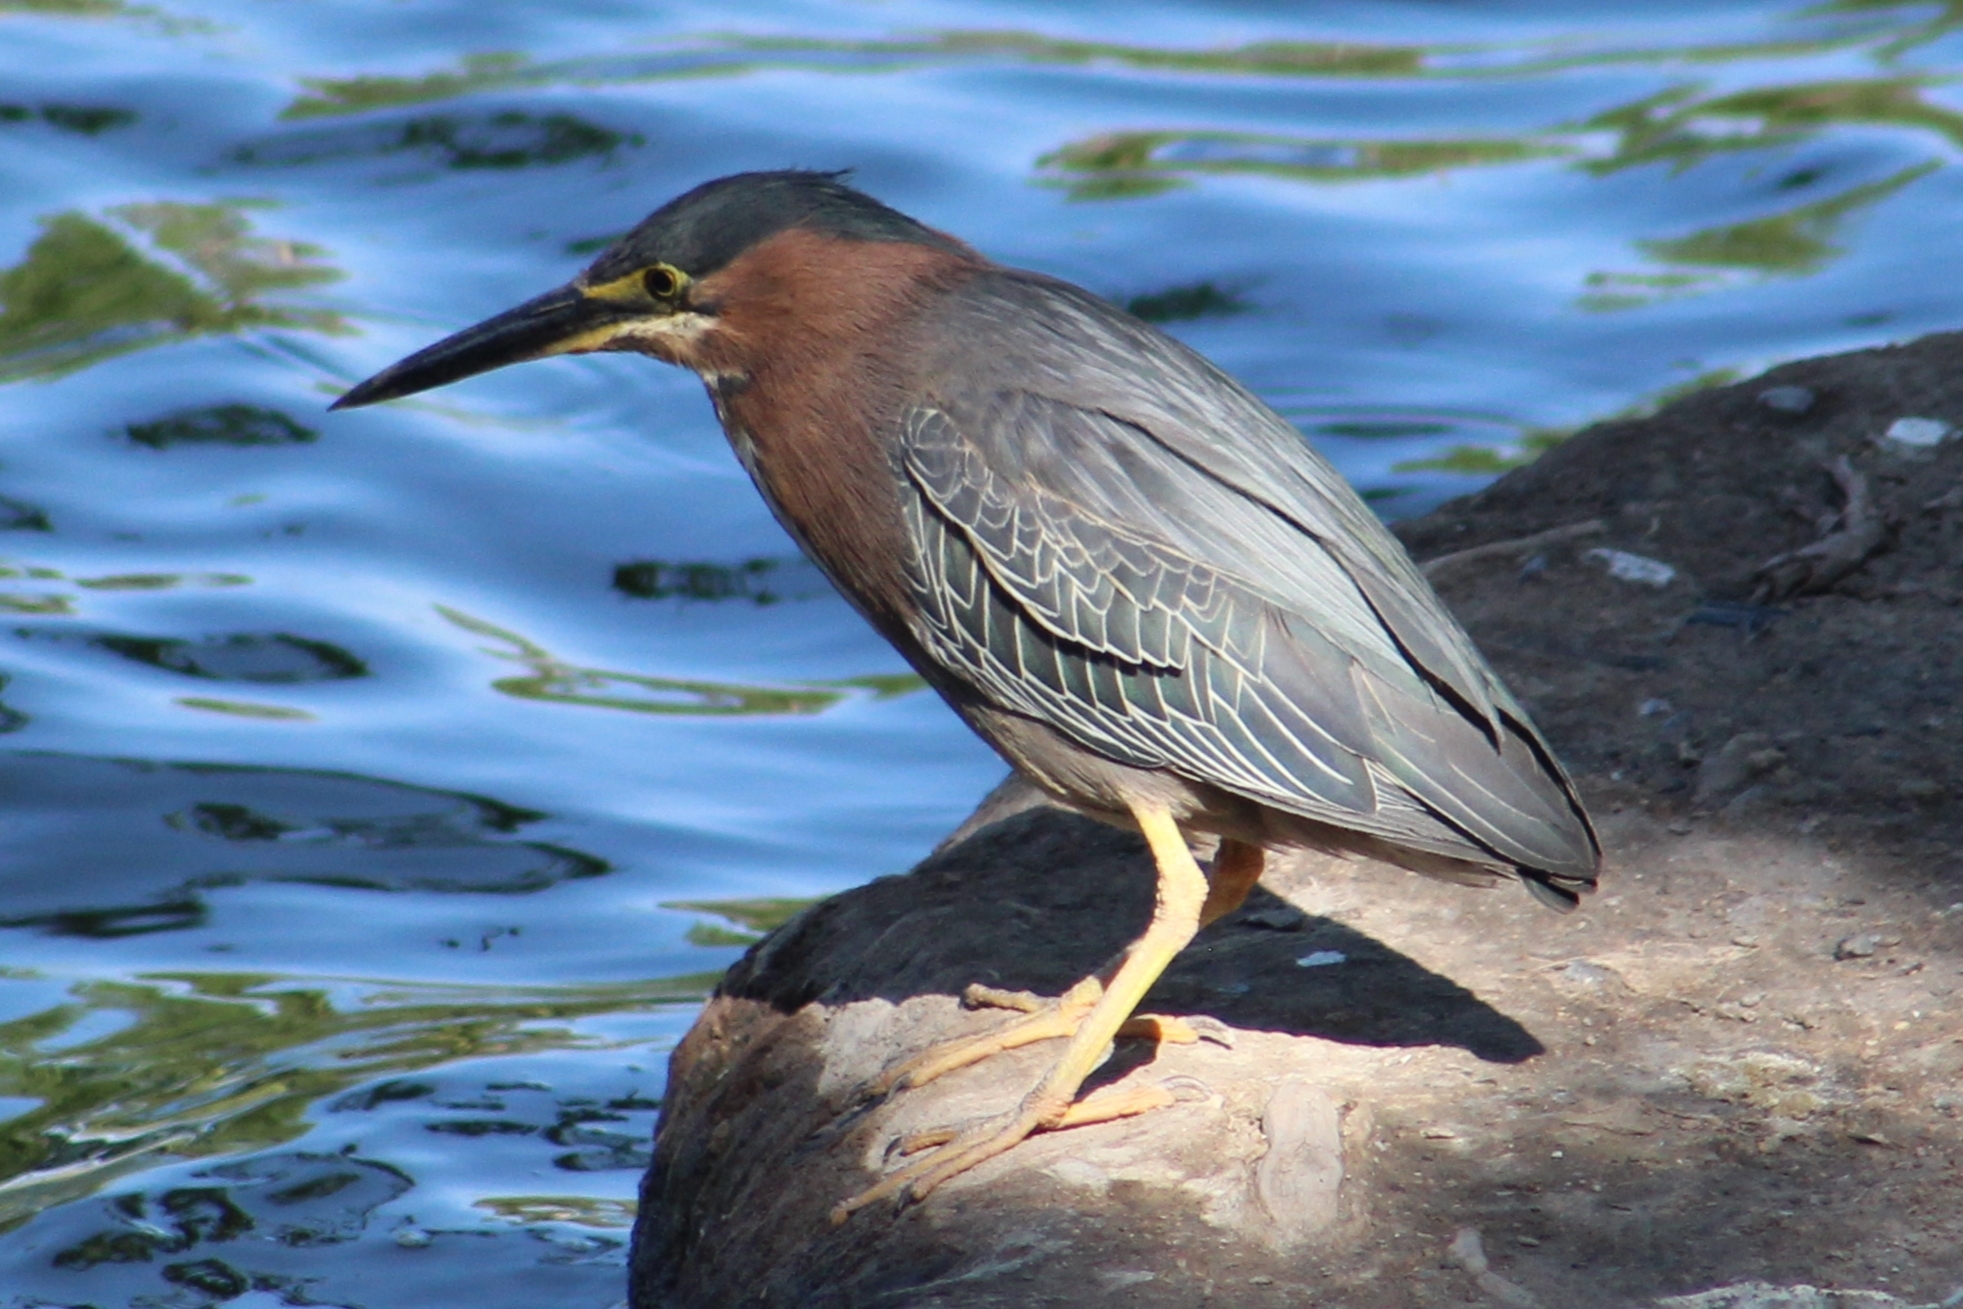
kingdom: Animalia
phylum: Chordata
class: Aves
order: Pelecaniformes
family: Ardeidae
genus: Butorides
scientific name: Butorides virescens
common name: Green heron
